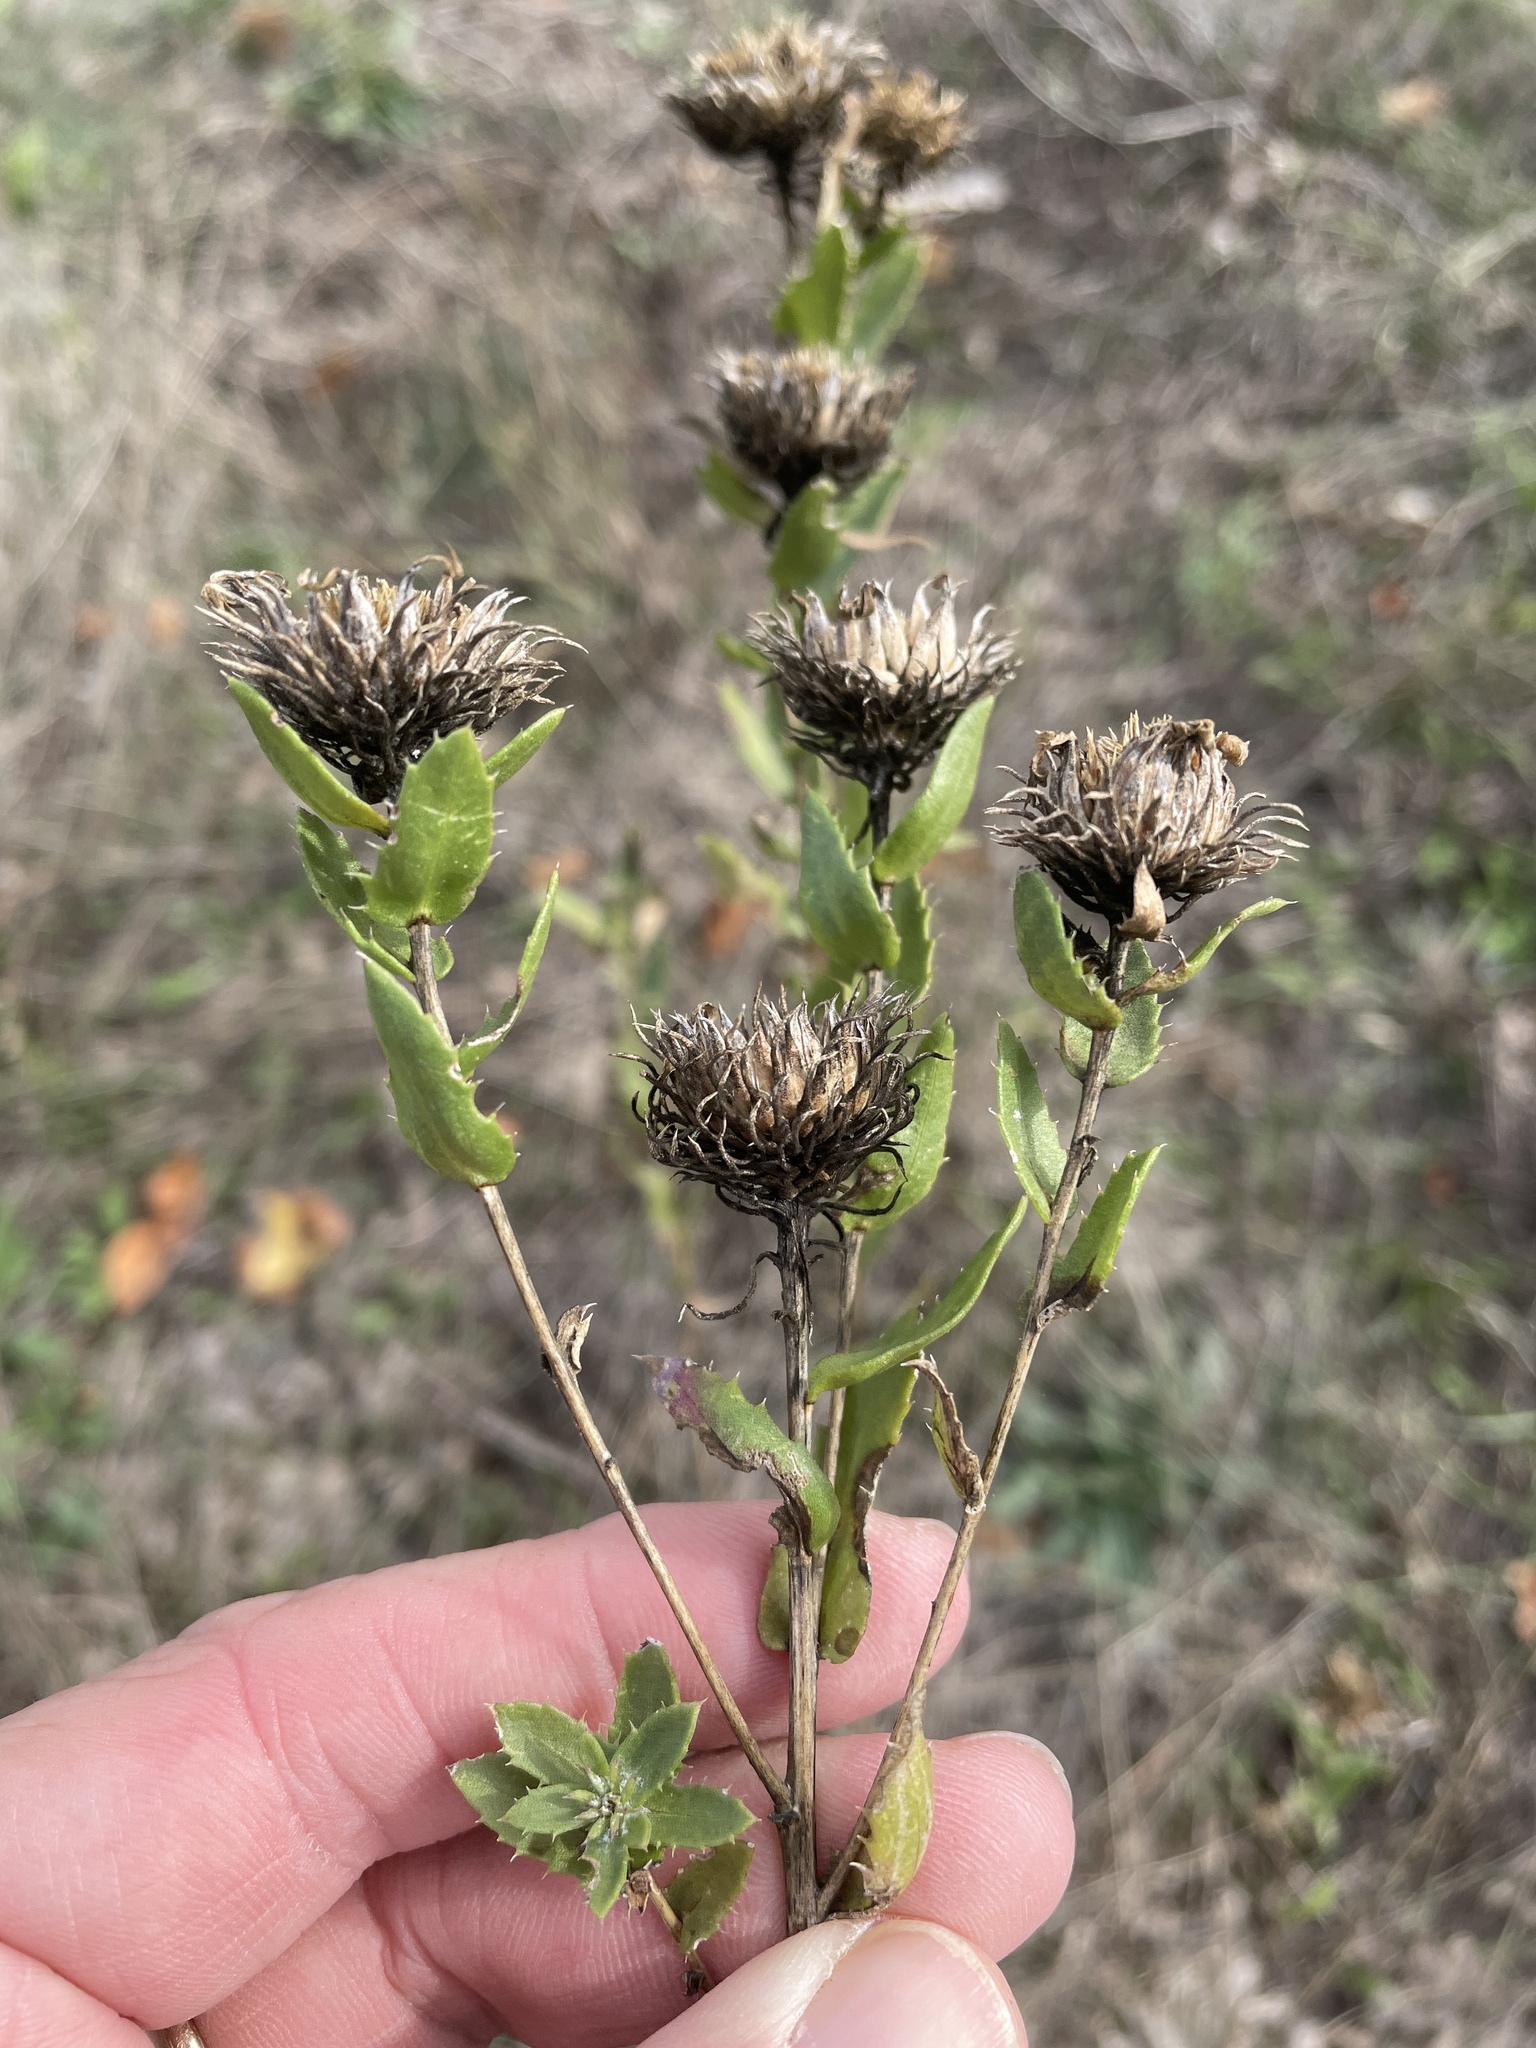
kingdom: Plantae
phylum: Tracheophyta
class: Magnoliopsida
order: Asterales
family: Asteraceae
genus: Grindelia
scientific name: Grindelia lanceolata
